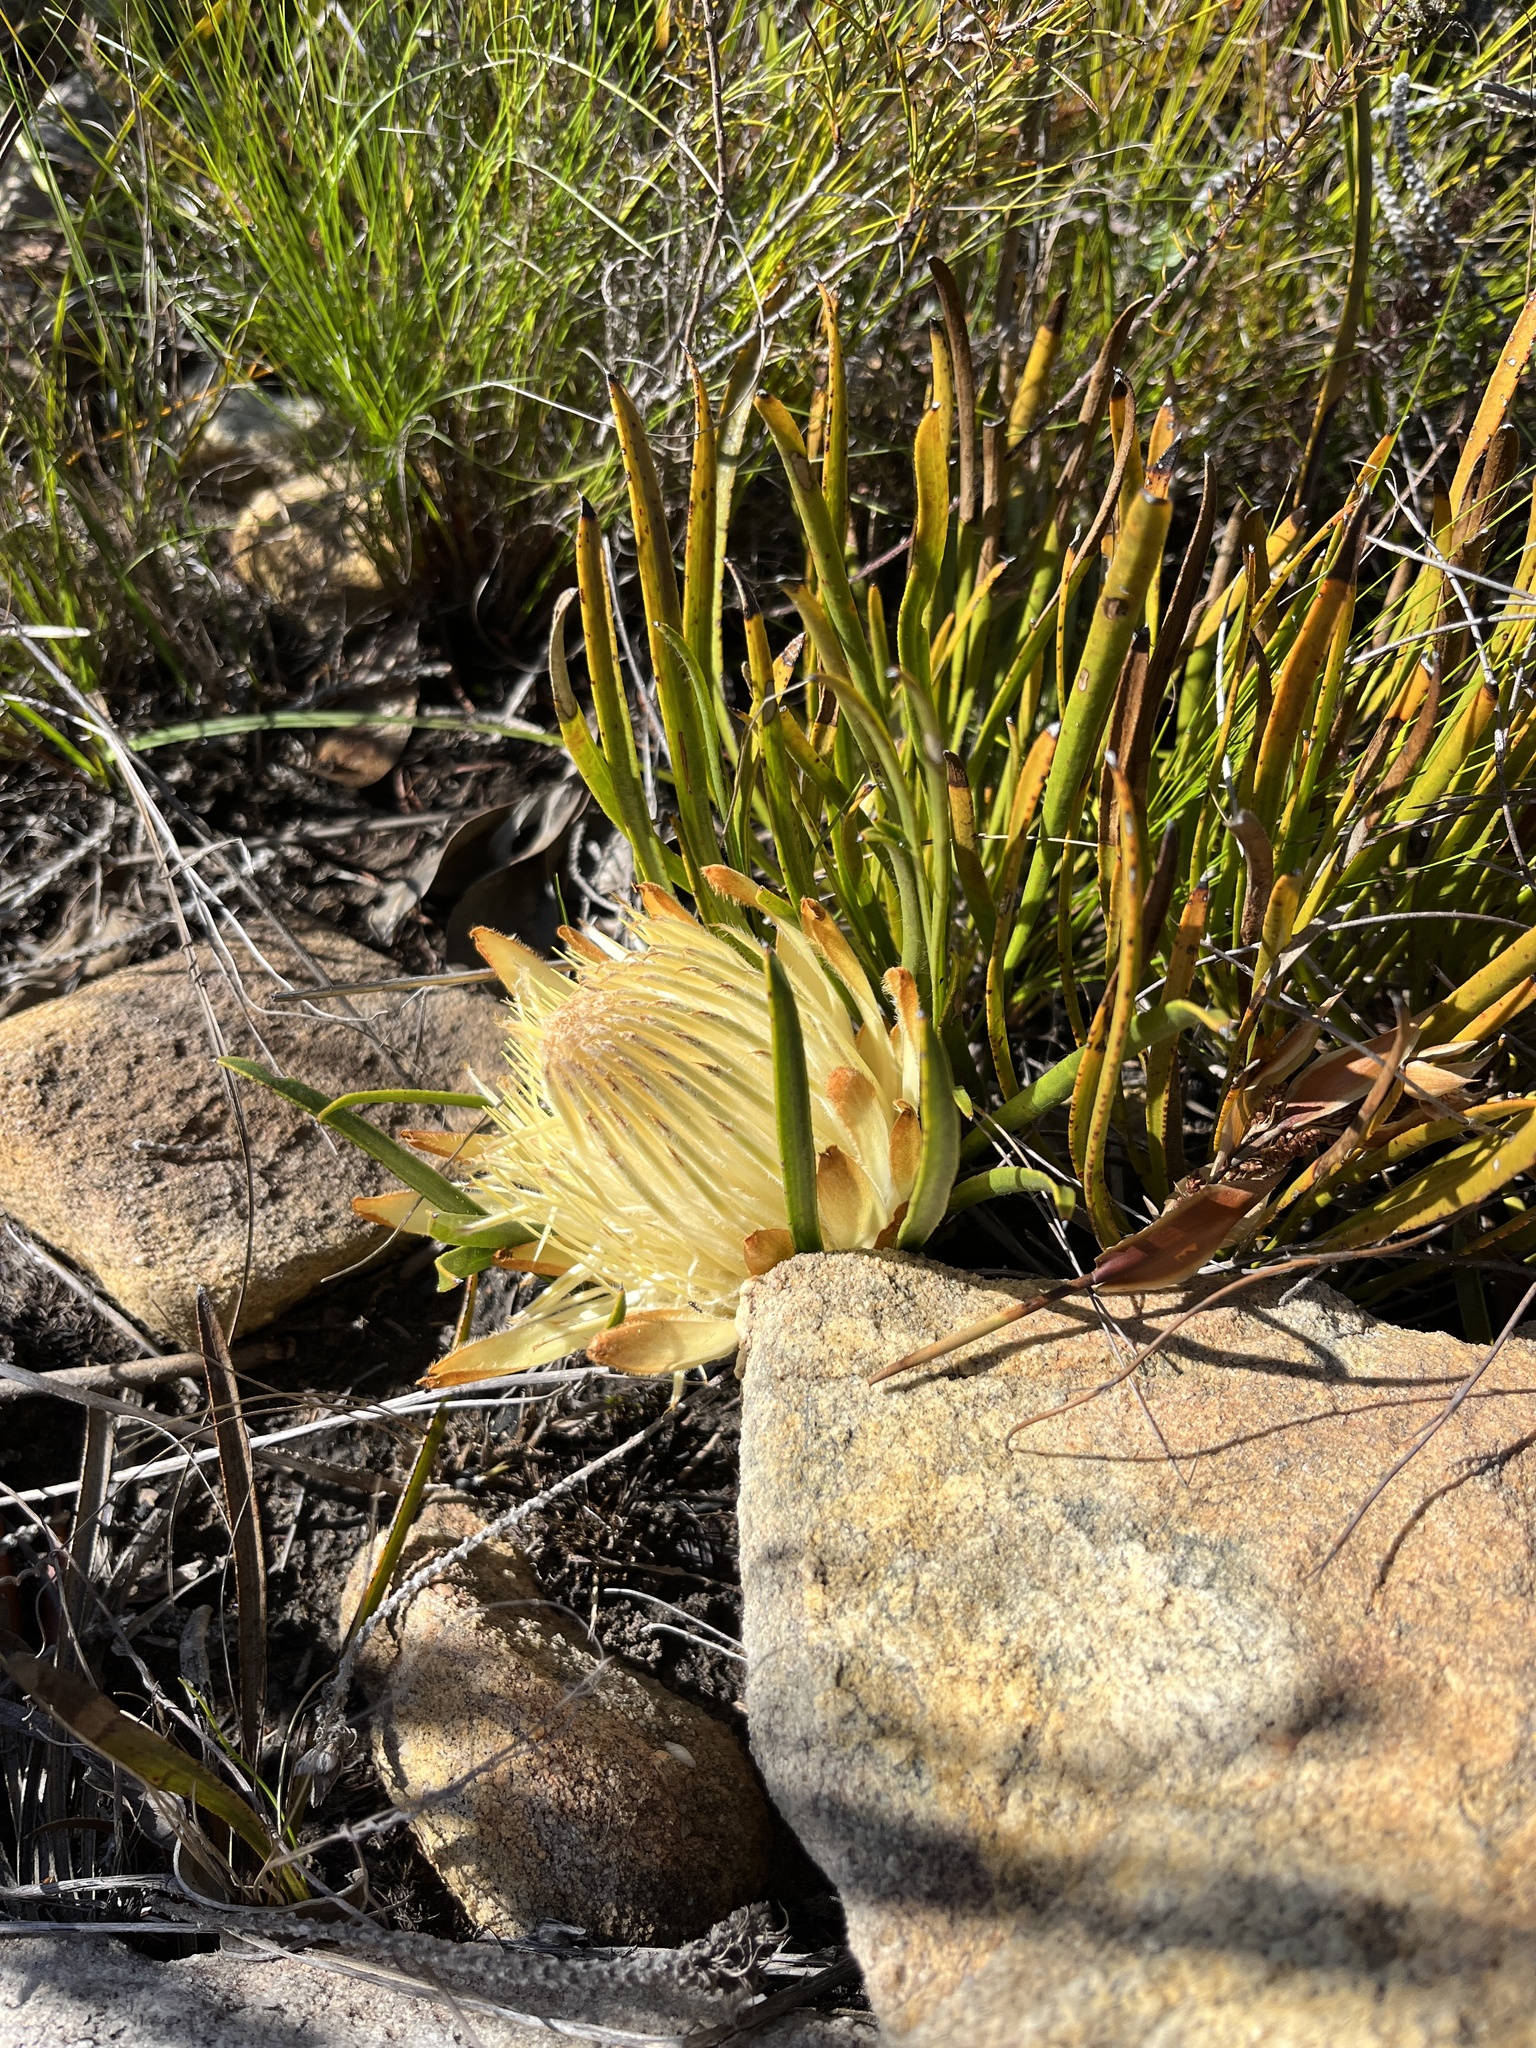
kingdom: Plantae
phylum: Tracheophyta
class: Magnoliopsida
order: Proteales
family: Proteaceae
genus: Protea
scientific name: Protea aspera
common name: Rough-leaf sugarbush
